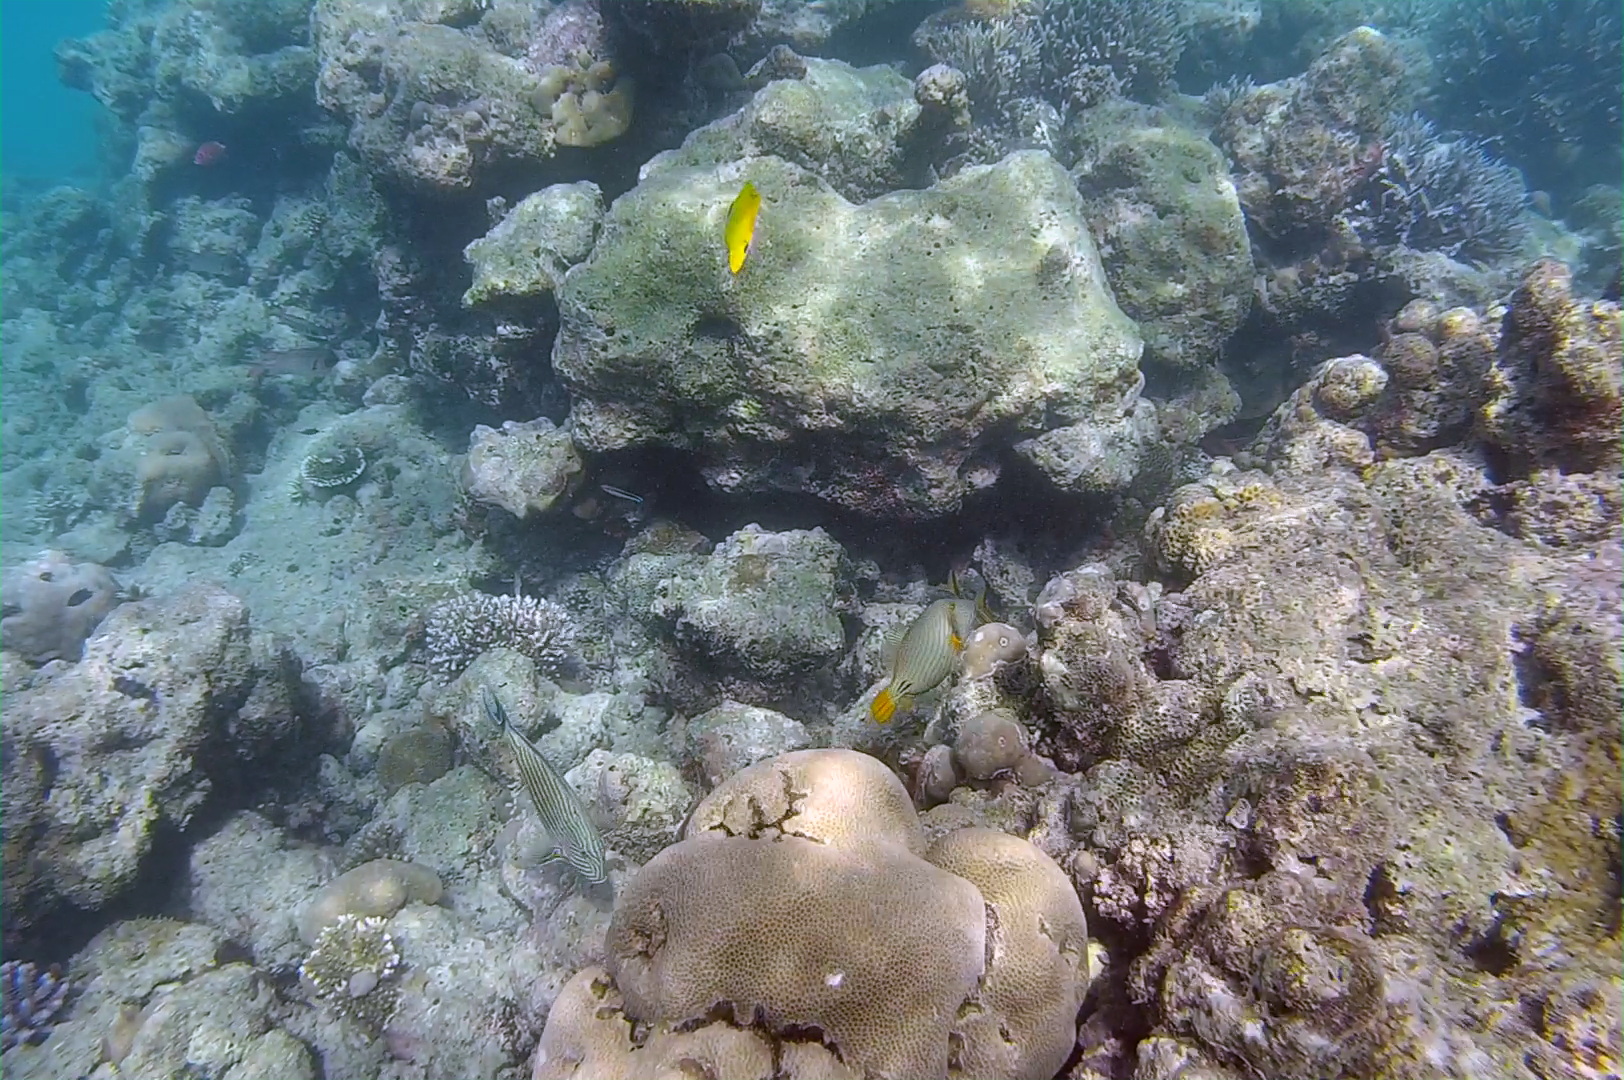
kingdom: Animalia
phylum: Chordata
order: Tetraodontiformes
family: Balistidae
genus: Balistapus
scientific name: Balistapus undulatus
